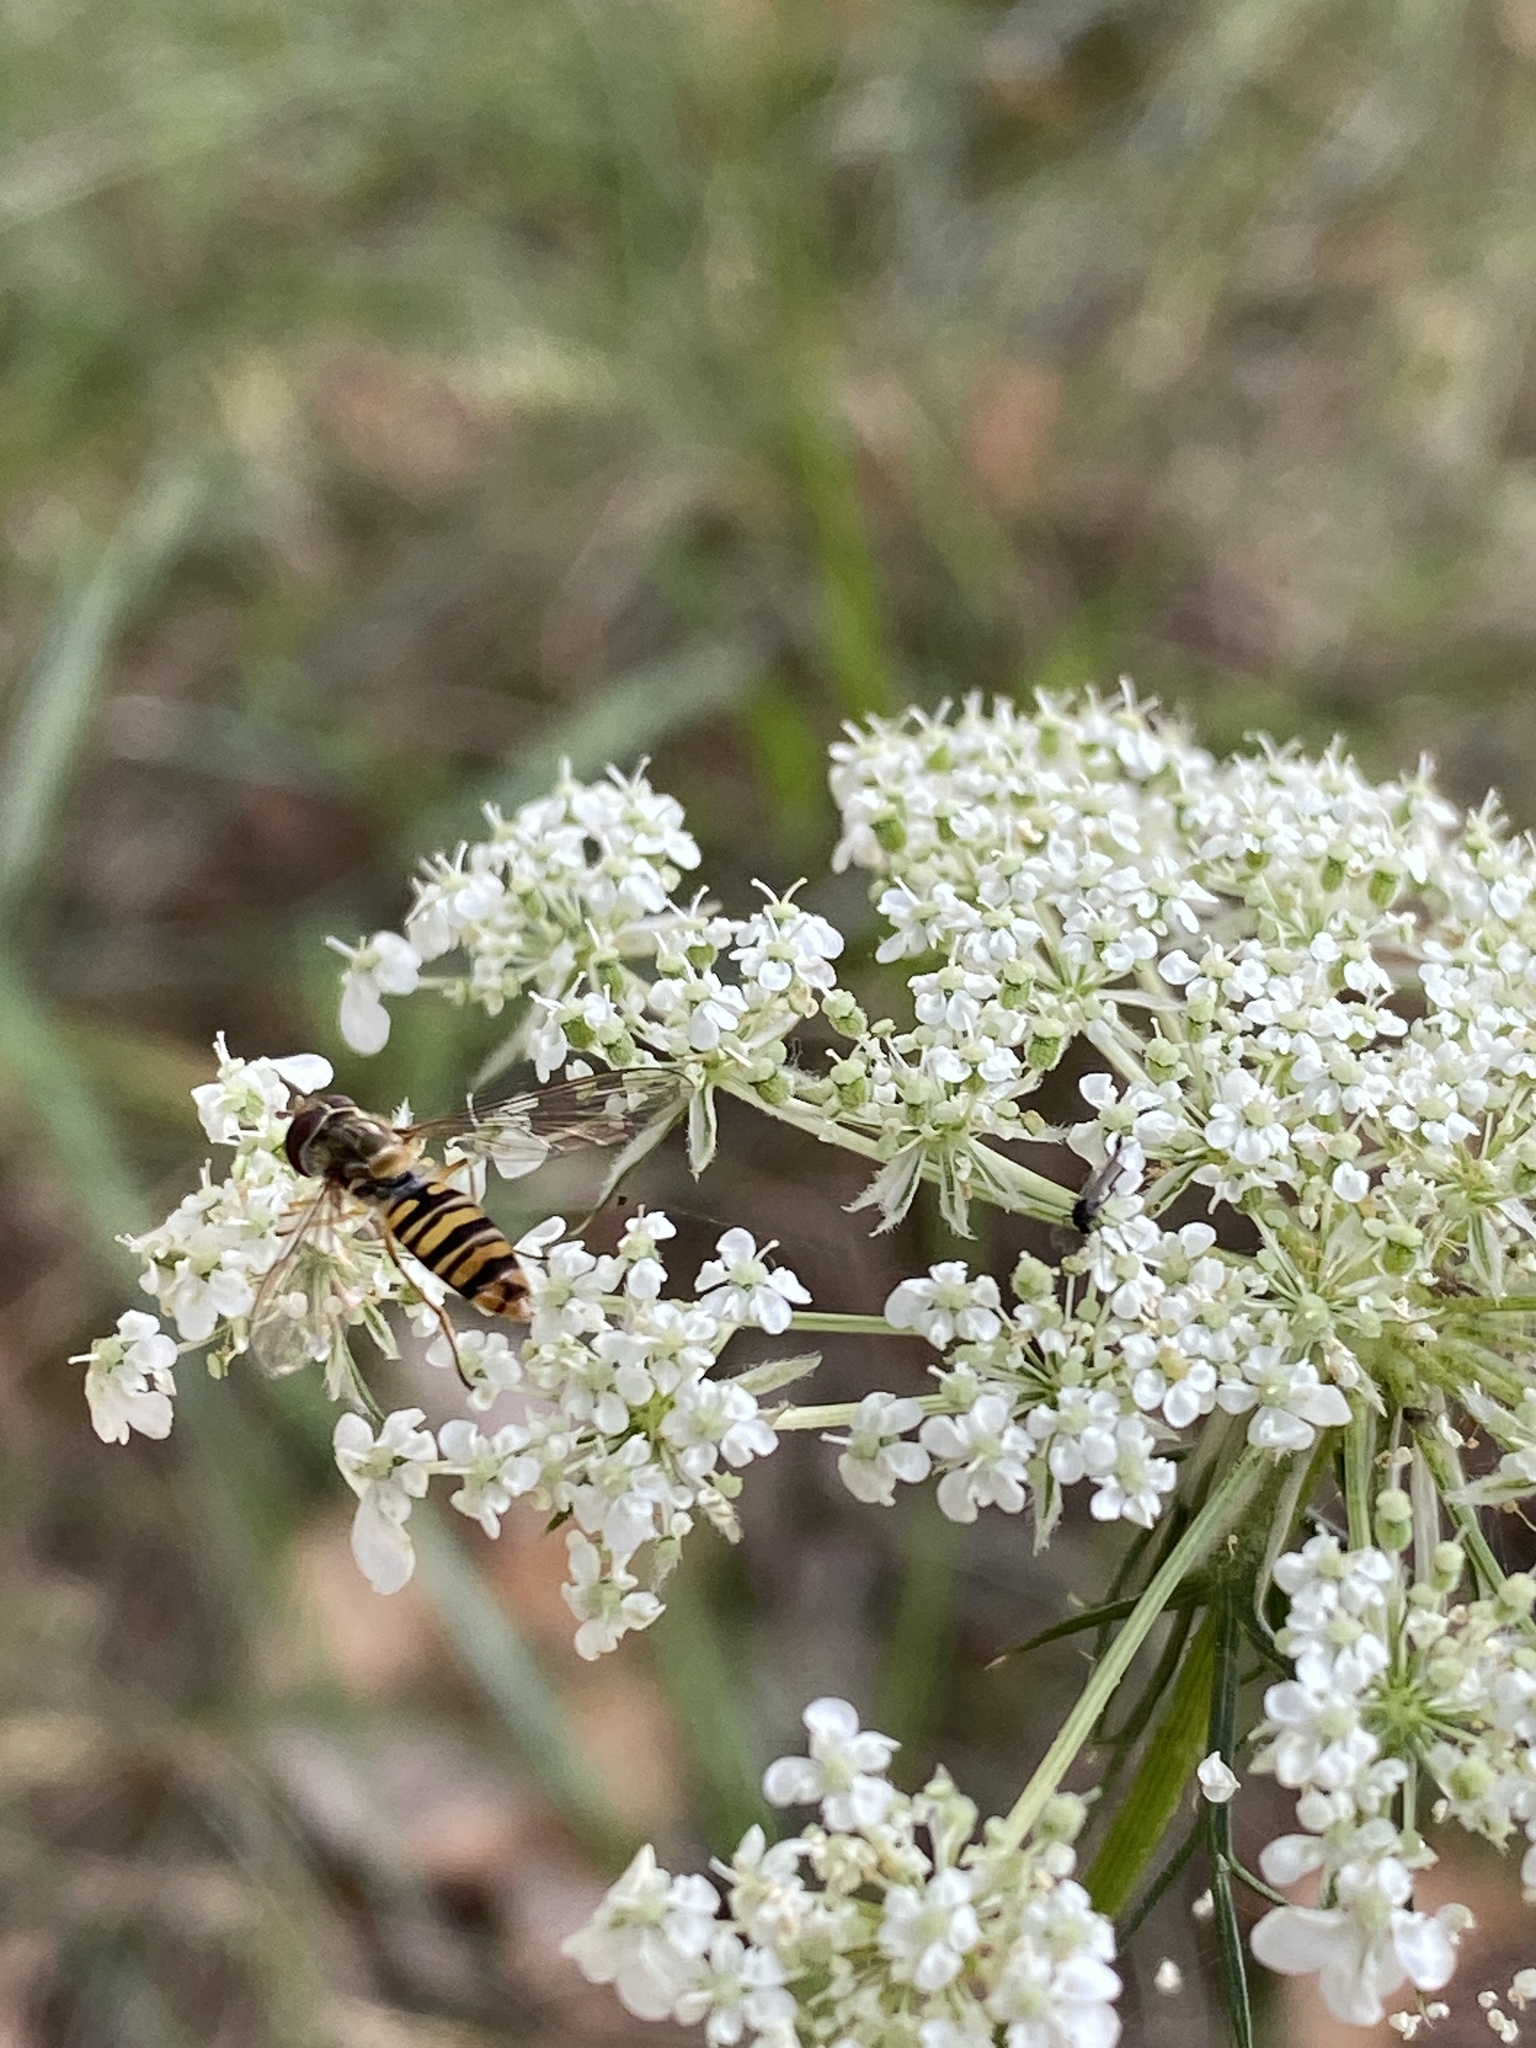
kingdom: Animalia
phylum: Arthropoda
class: Insecta
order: Diptera
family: Syrphidae
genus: Episyrphus
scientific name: Episyrphus balteatus
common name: Marmalade hoverfly
